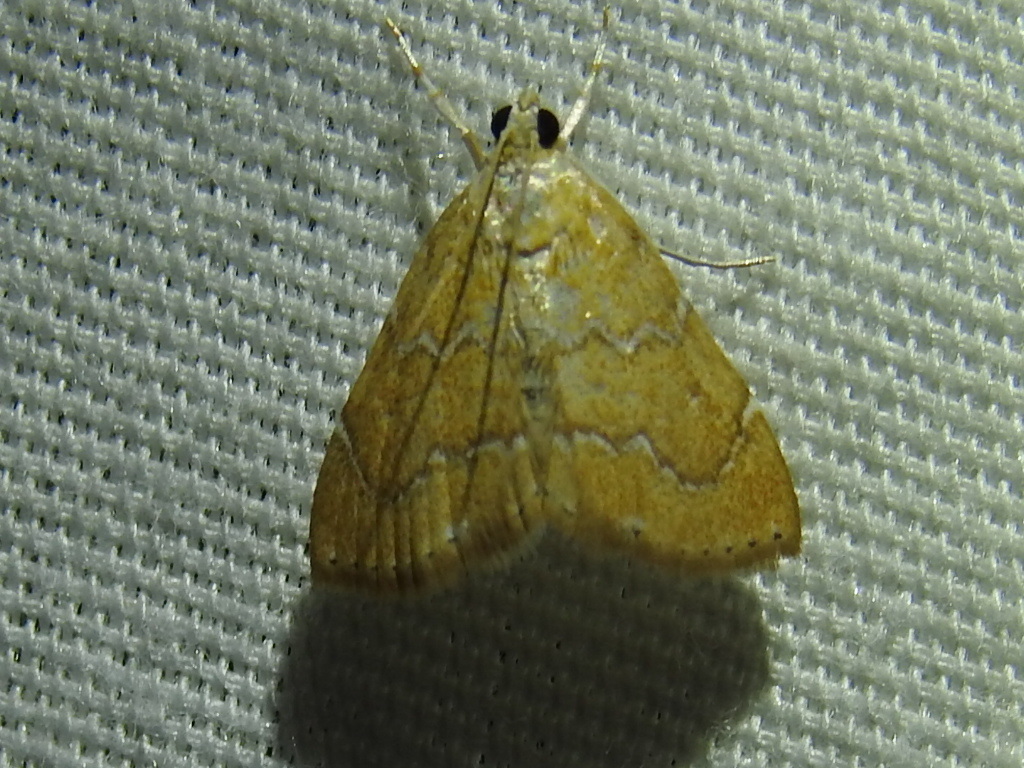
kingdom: Animalia
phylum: Arthropoda
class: Insecta
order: Lepidoptera
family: Crambidae
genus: Glaphyria
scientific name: Glaphyria sesquistrialis
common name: White-roped glaphyria
